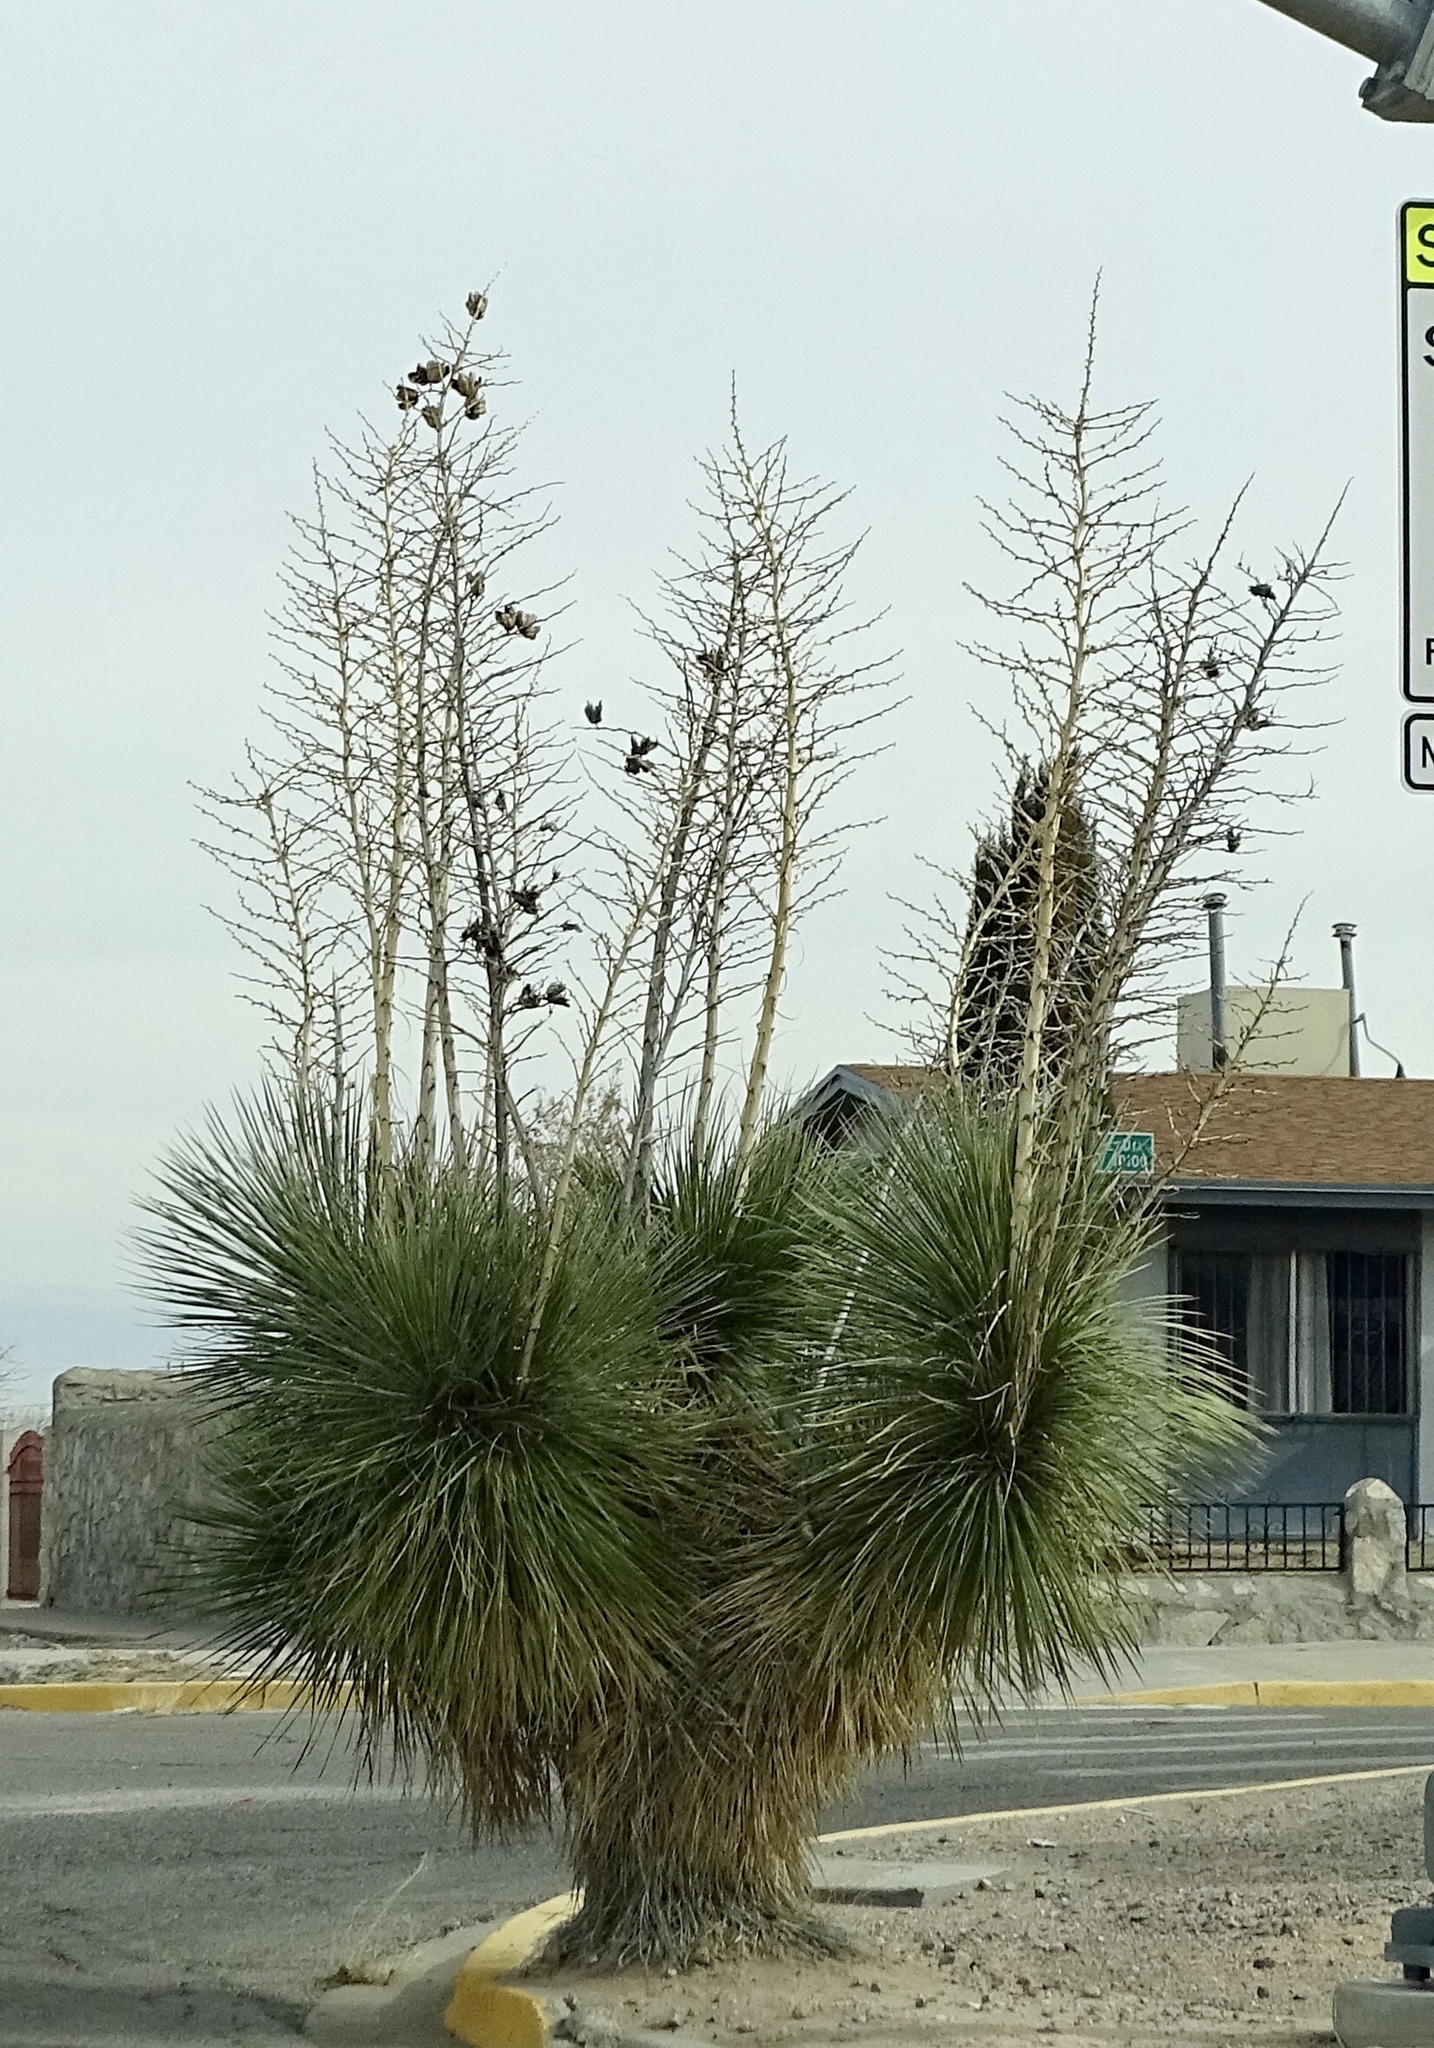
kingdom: Plantae
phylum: Tracheophyta
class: Liliopsida
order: Asparagales
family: Asparagaceae
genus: Yucca
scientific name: Yucca elata
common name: Palmella
